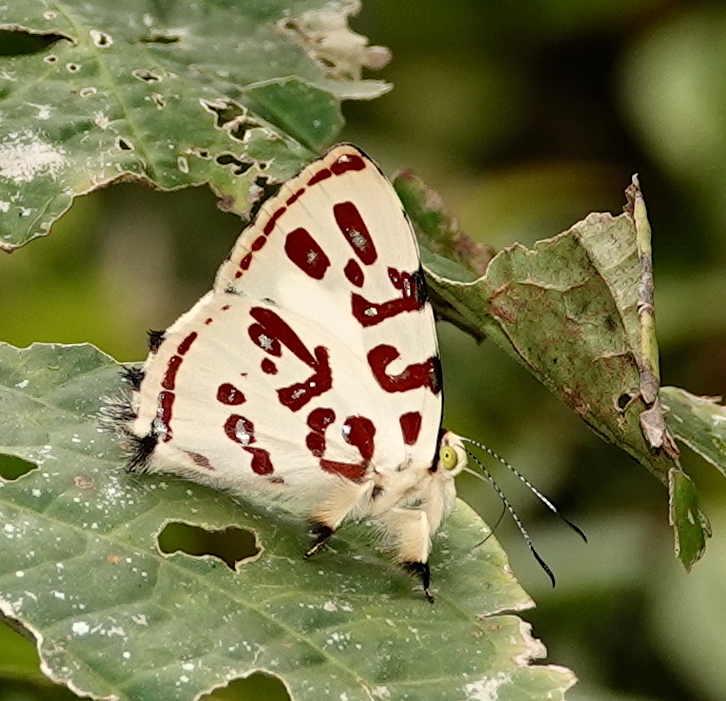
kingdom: Animalia
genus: Anteros
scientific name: Anteros kupris
